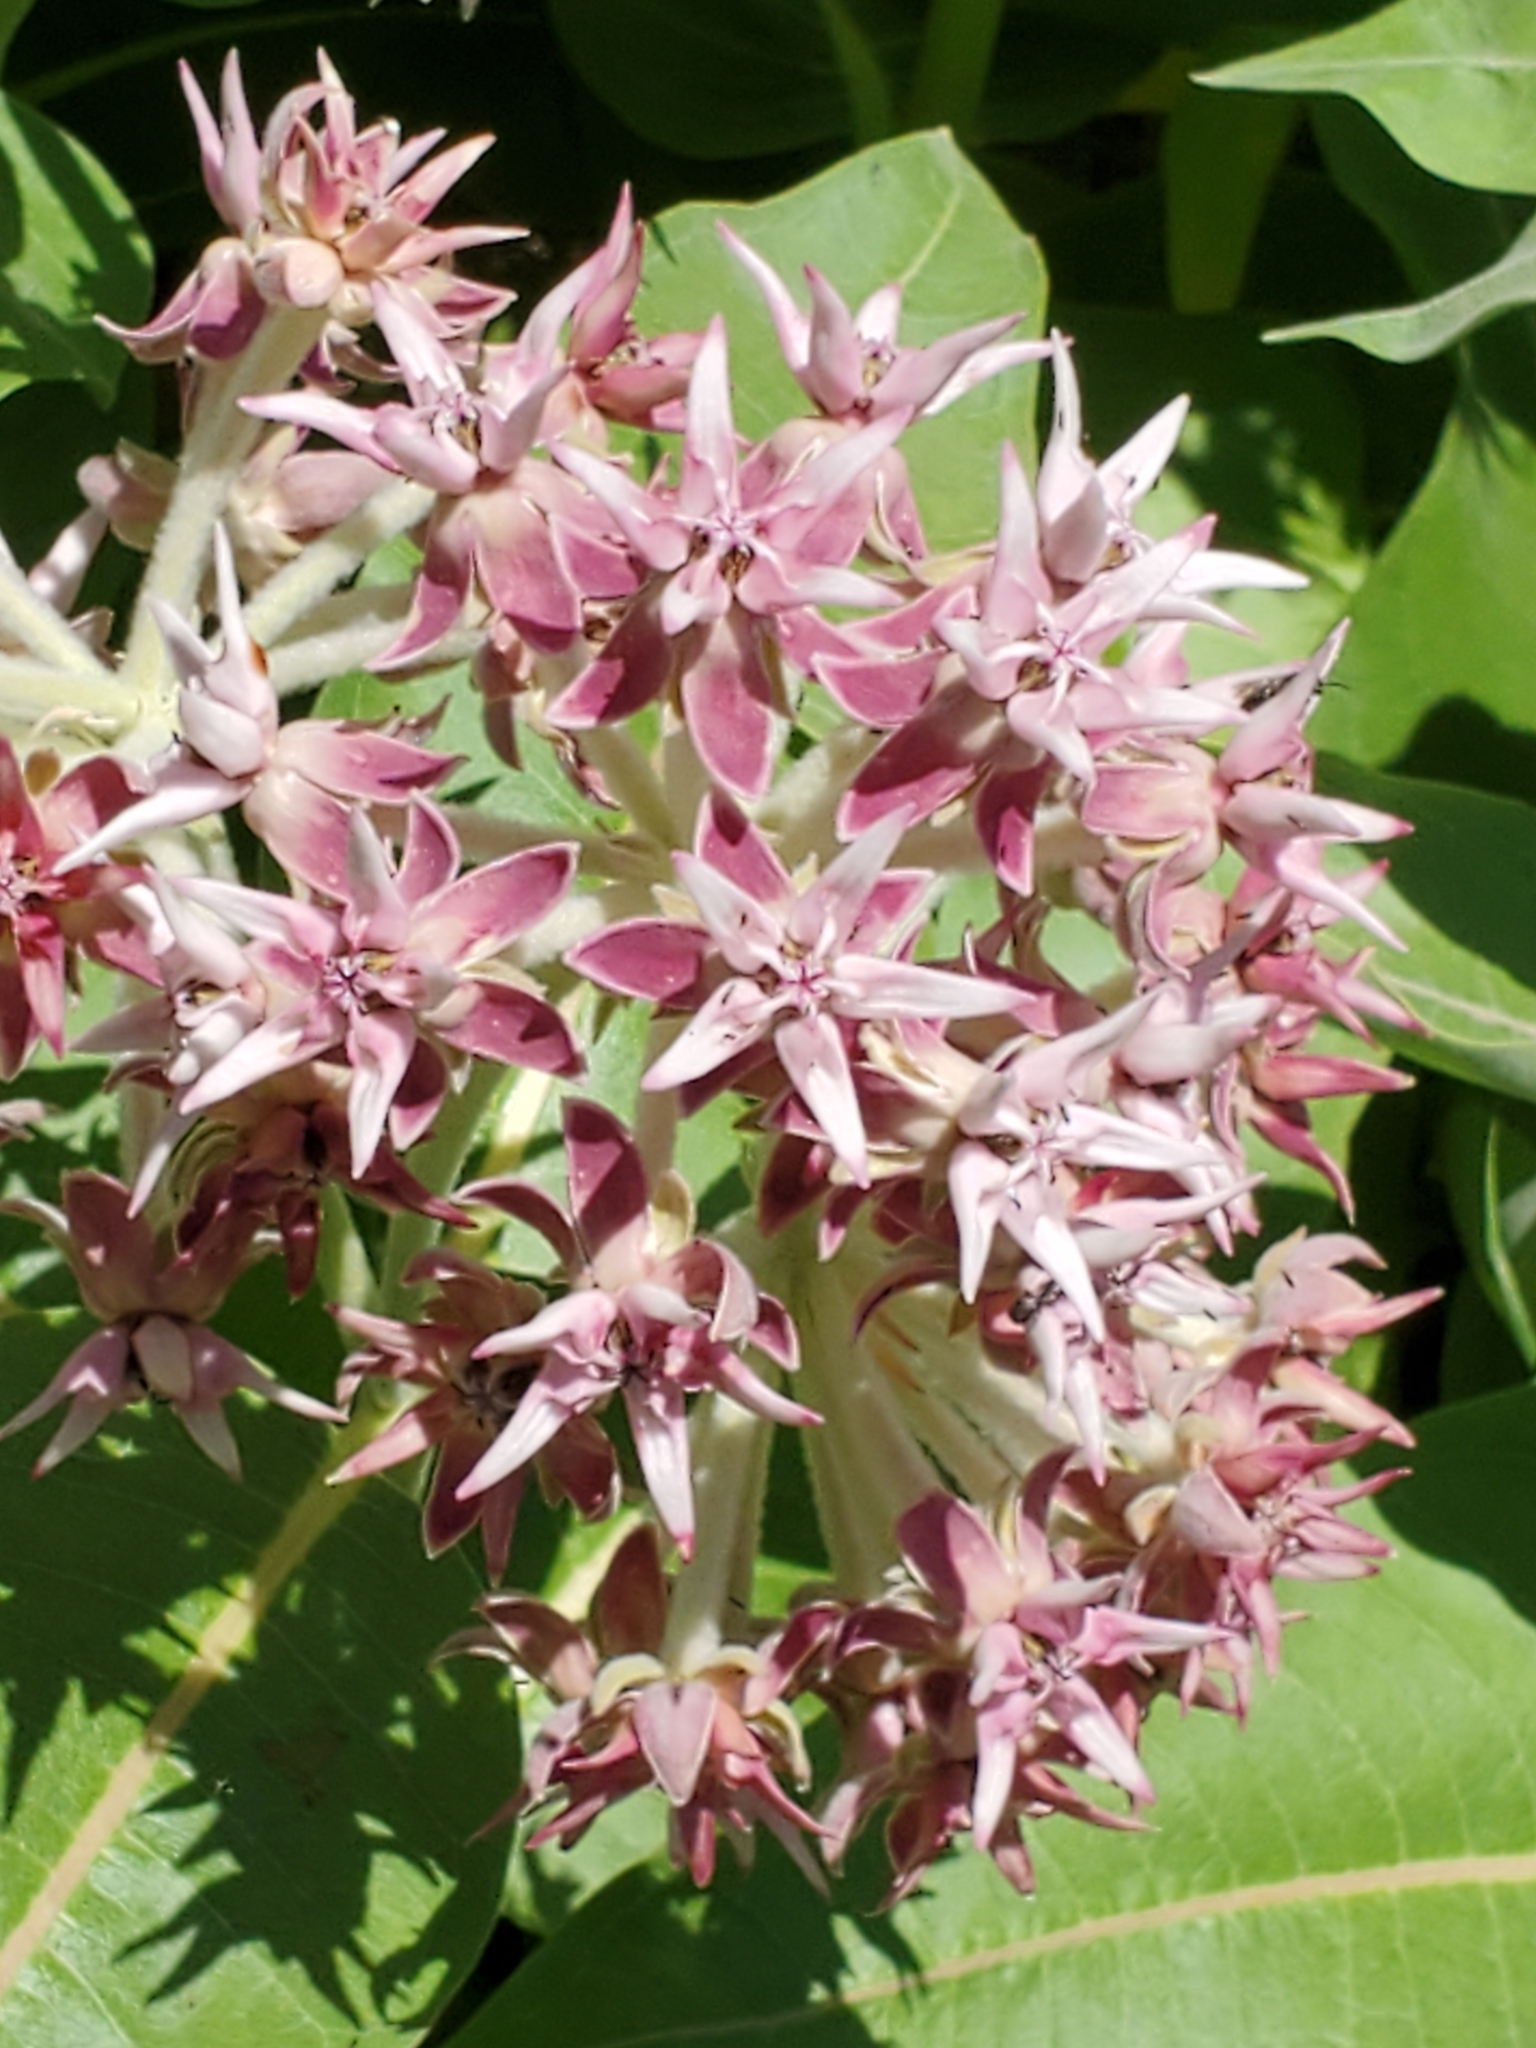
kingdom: Plantae
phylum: Tracheophyta
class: Magnoliopsida
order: Gentianales
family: Apocynaceae
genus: Asclepias
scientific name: Asclepias speciosa
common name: Showy milkweed
